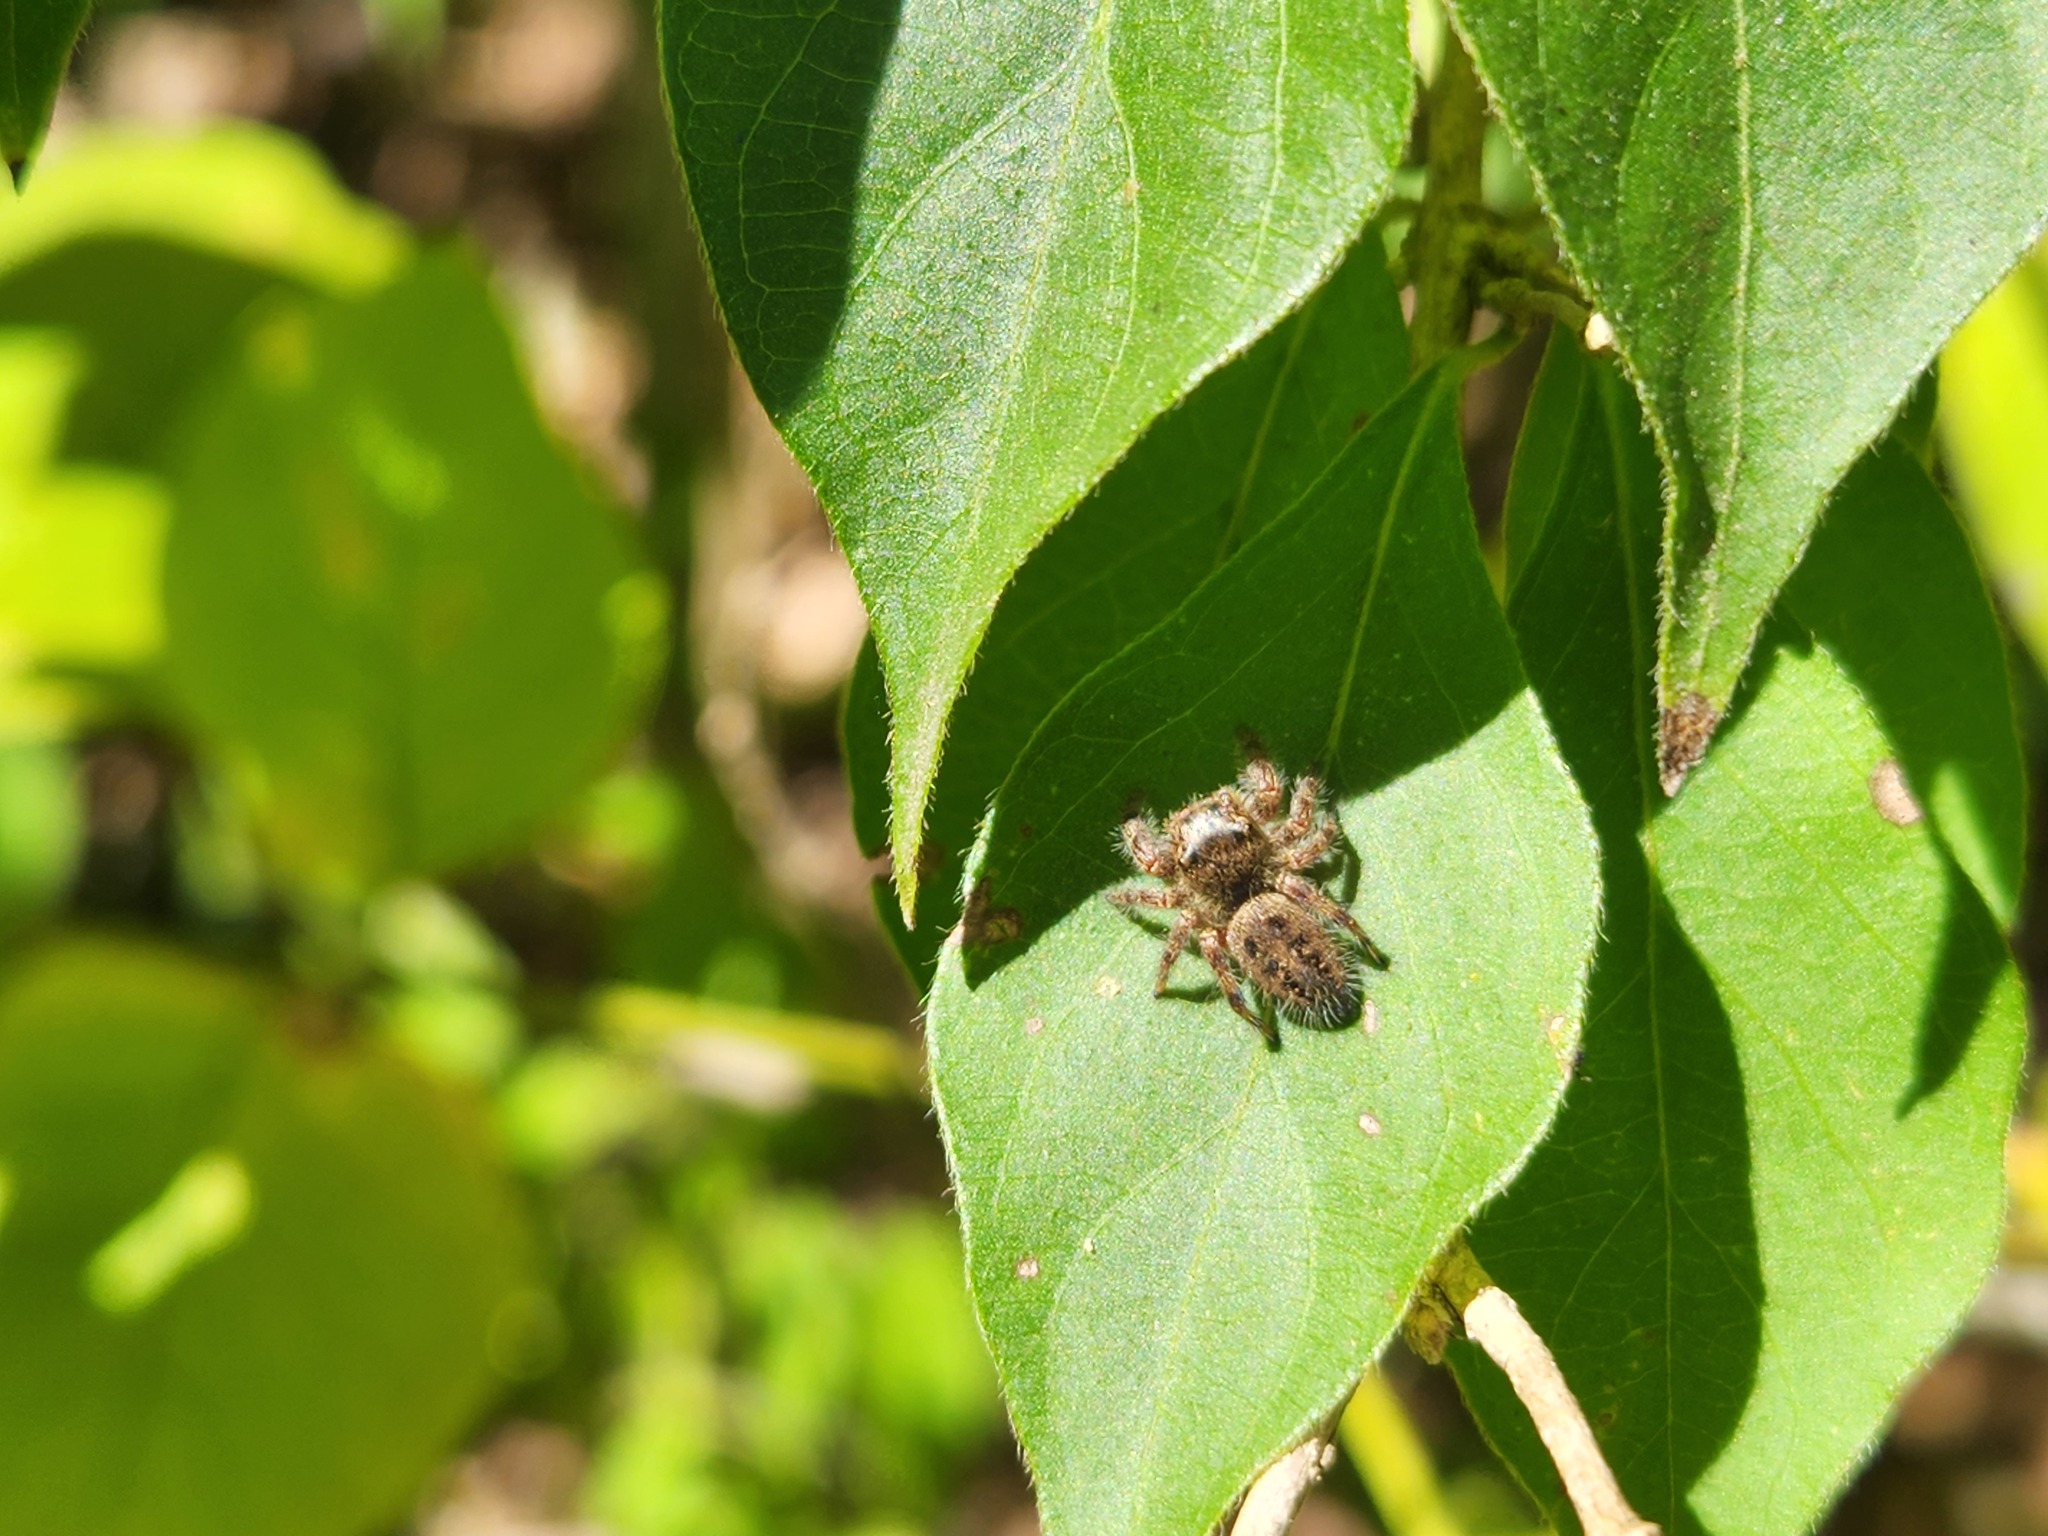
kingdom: Animalia
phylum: Arthropoda
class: Arachnida
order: Araneae
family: Salticidae
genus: Phidippus
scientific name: Phidippus princeps
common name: Grayish jumping spider
